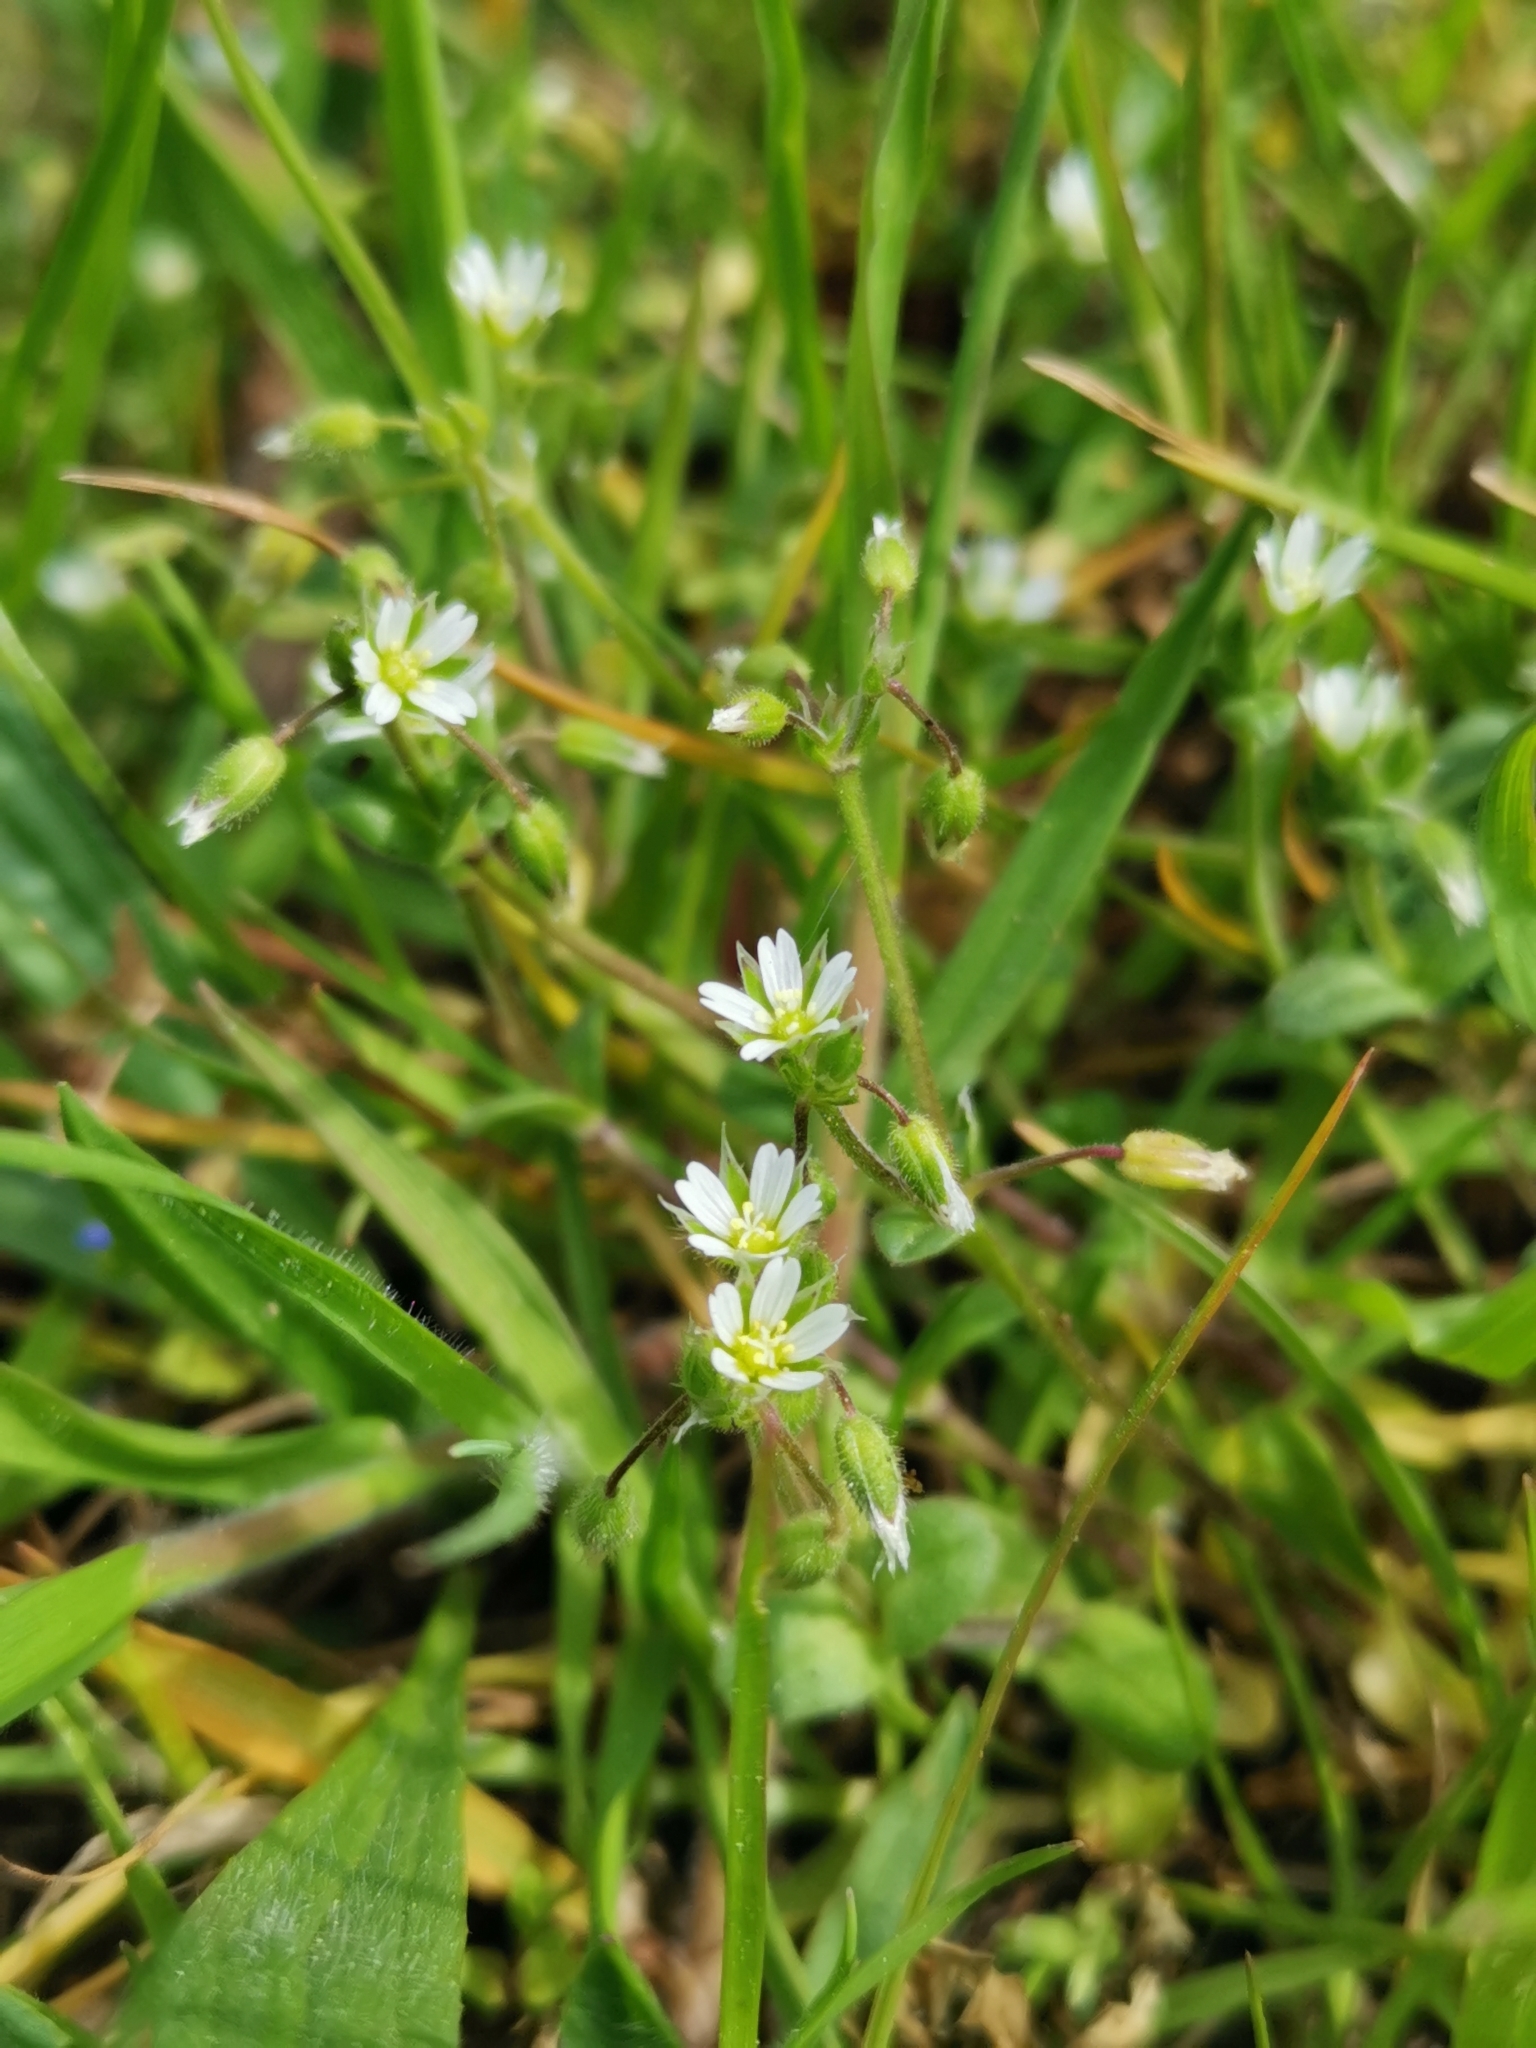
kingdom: Plantae
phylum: Tracheophyta
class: Magnoliopsida
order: Caryophyllales
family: Caryophyllaceae
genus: Cerastium
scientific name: Cerastium semidecandrum
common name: Little mouse-ear
